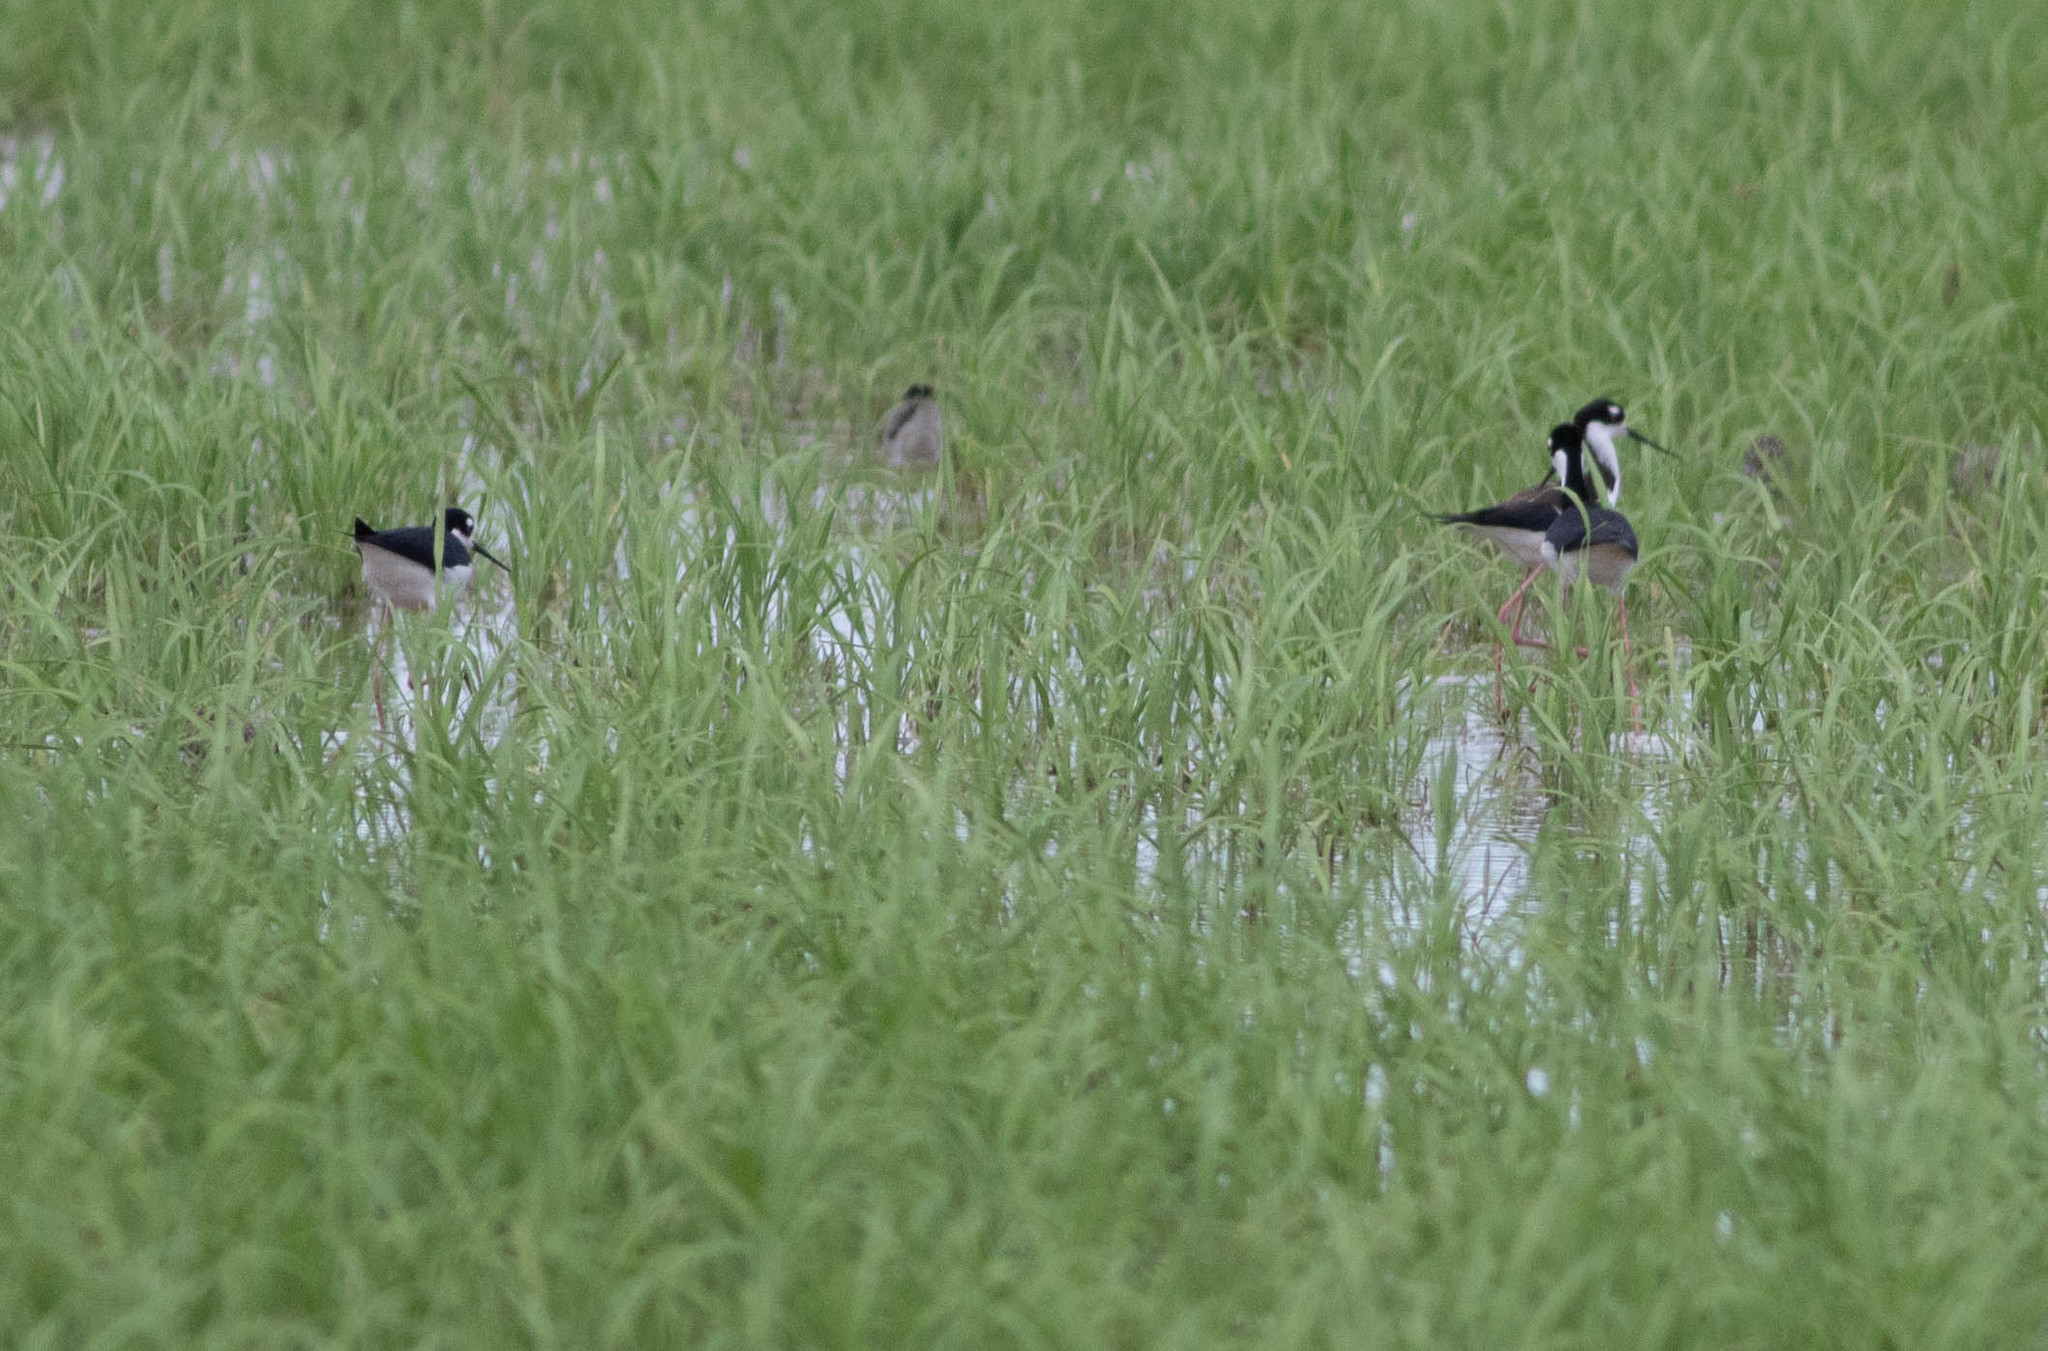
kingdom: Animalia
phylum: Chordata
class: Aves
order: Charadriiformes
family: Recurvirostridae
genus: Himantopus
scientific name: Himantopus mexicanus
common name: Black-necked stilt
